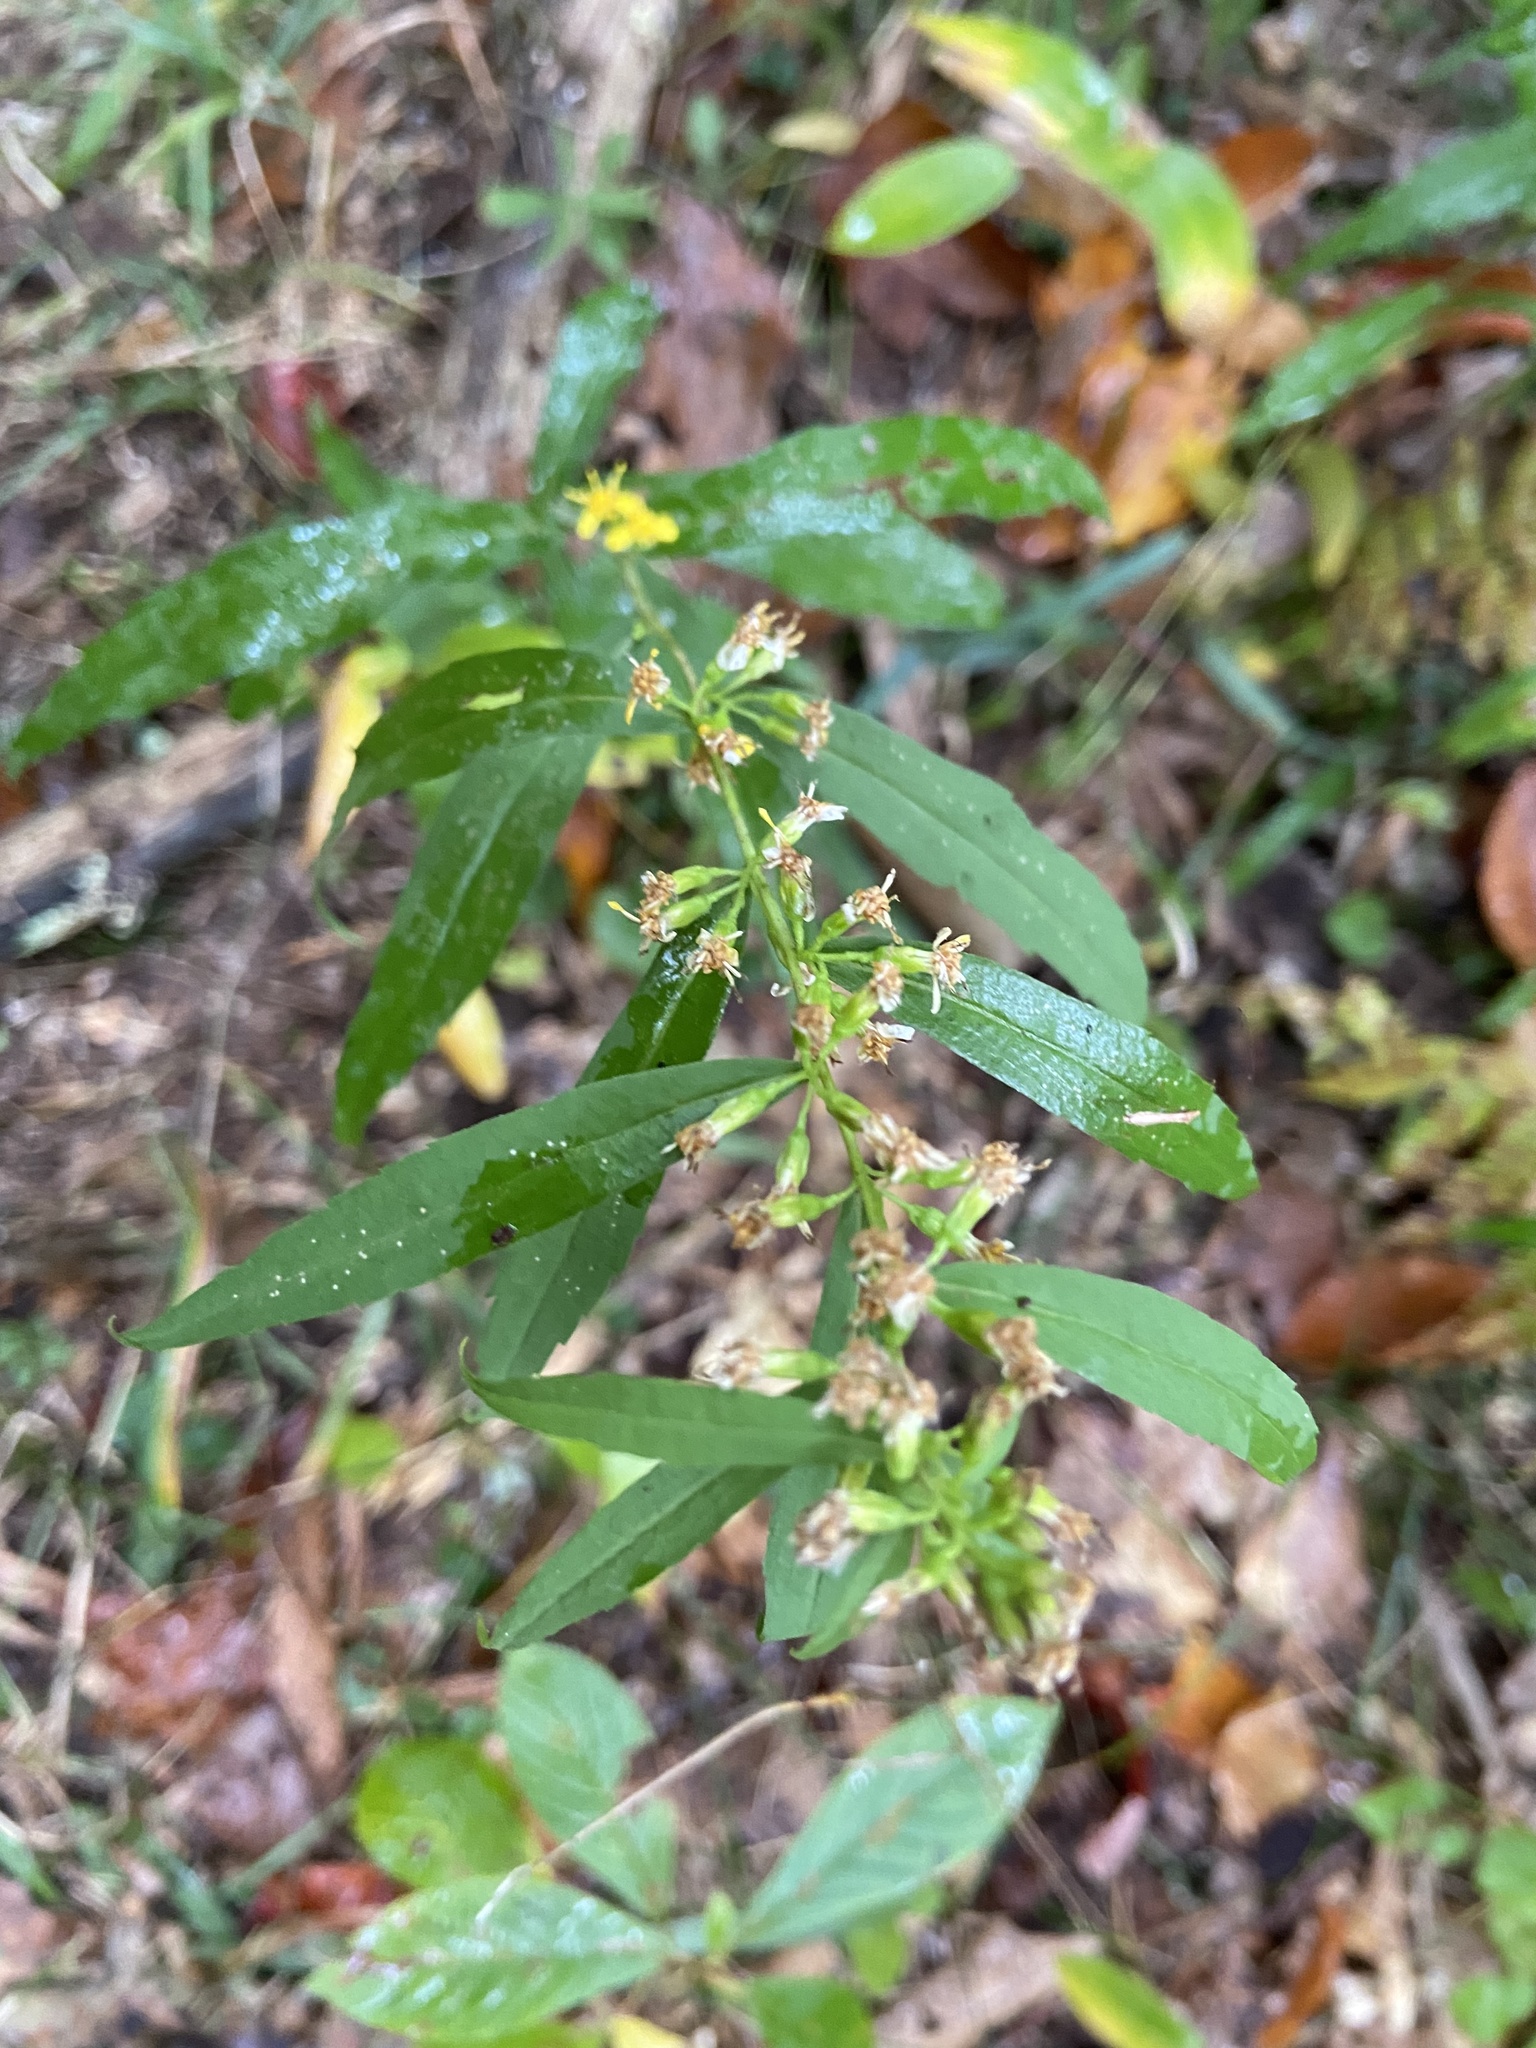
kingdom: Plantae
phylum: Tracheophyta
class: Magnoliopsida
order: Asterales
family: Asteraceae
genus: Solidago
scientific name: Solidago caesia
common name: Woodland goldenrod
